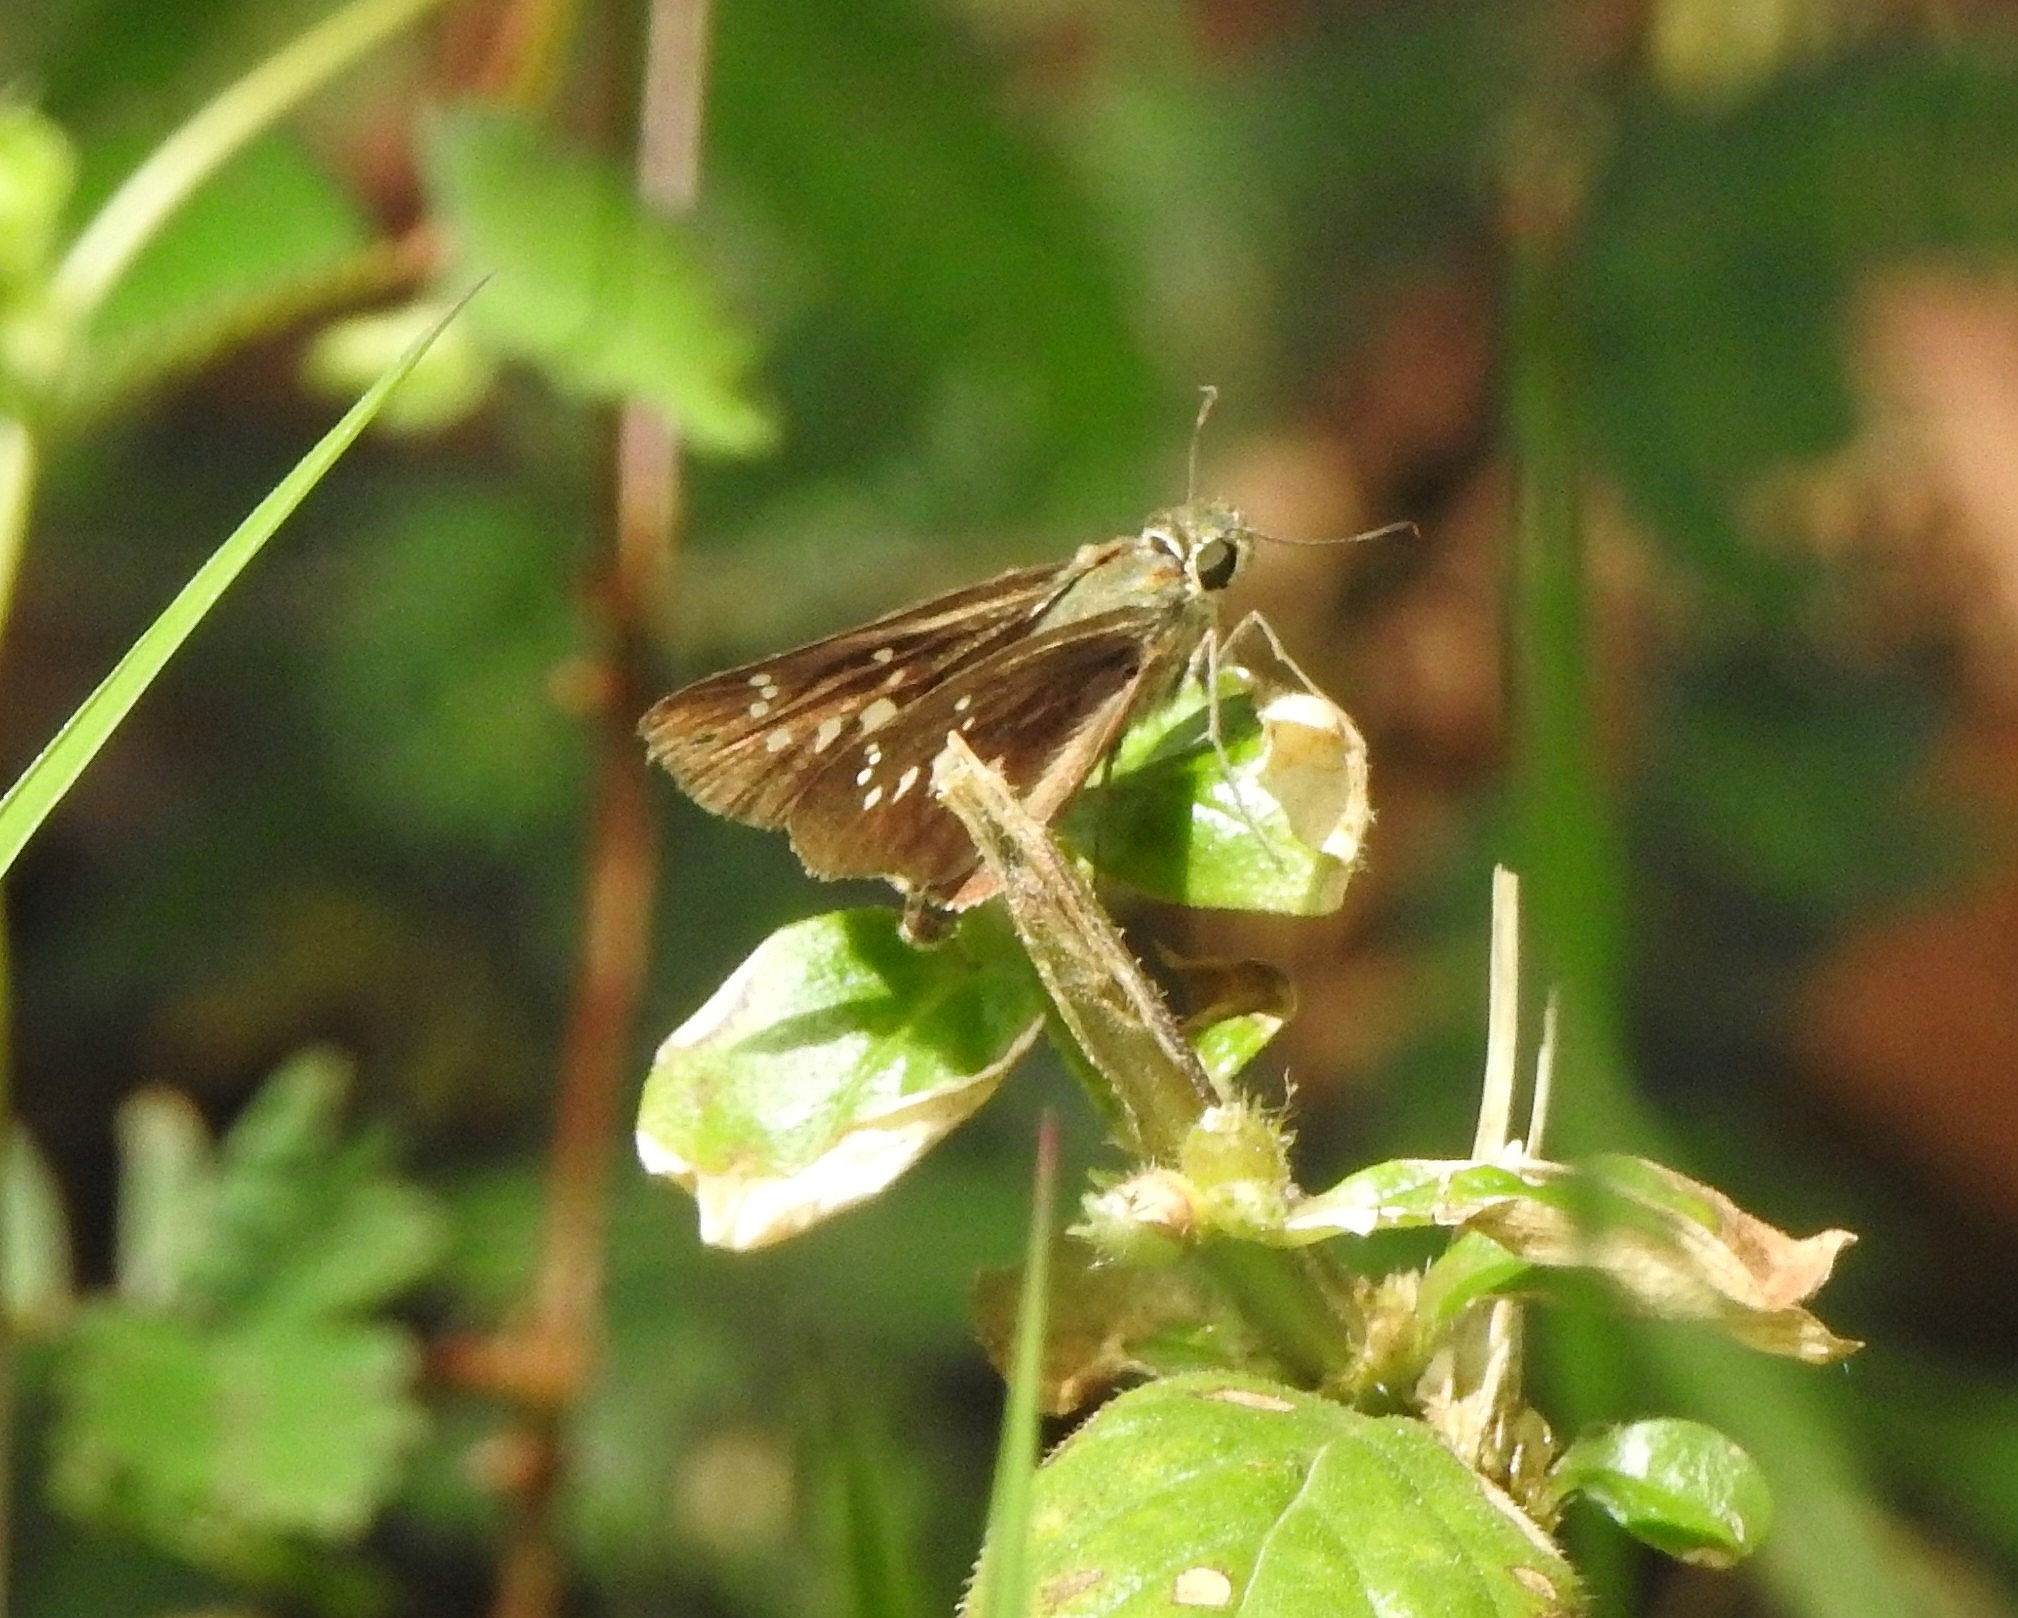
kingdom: Animalia
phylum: Arthropoda
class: Insecta
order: Lepidoptera
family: Hesperiidae
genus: Borbo
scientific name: Borbo cinnara
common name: Formosan swift
